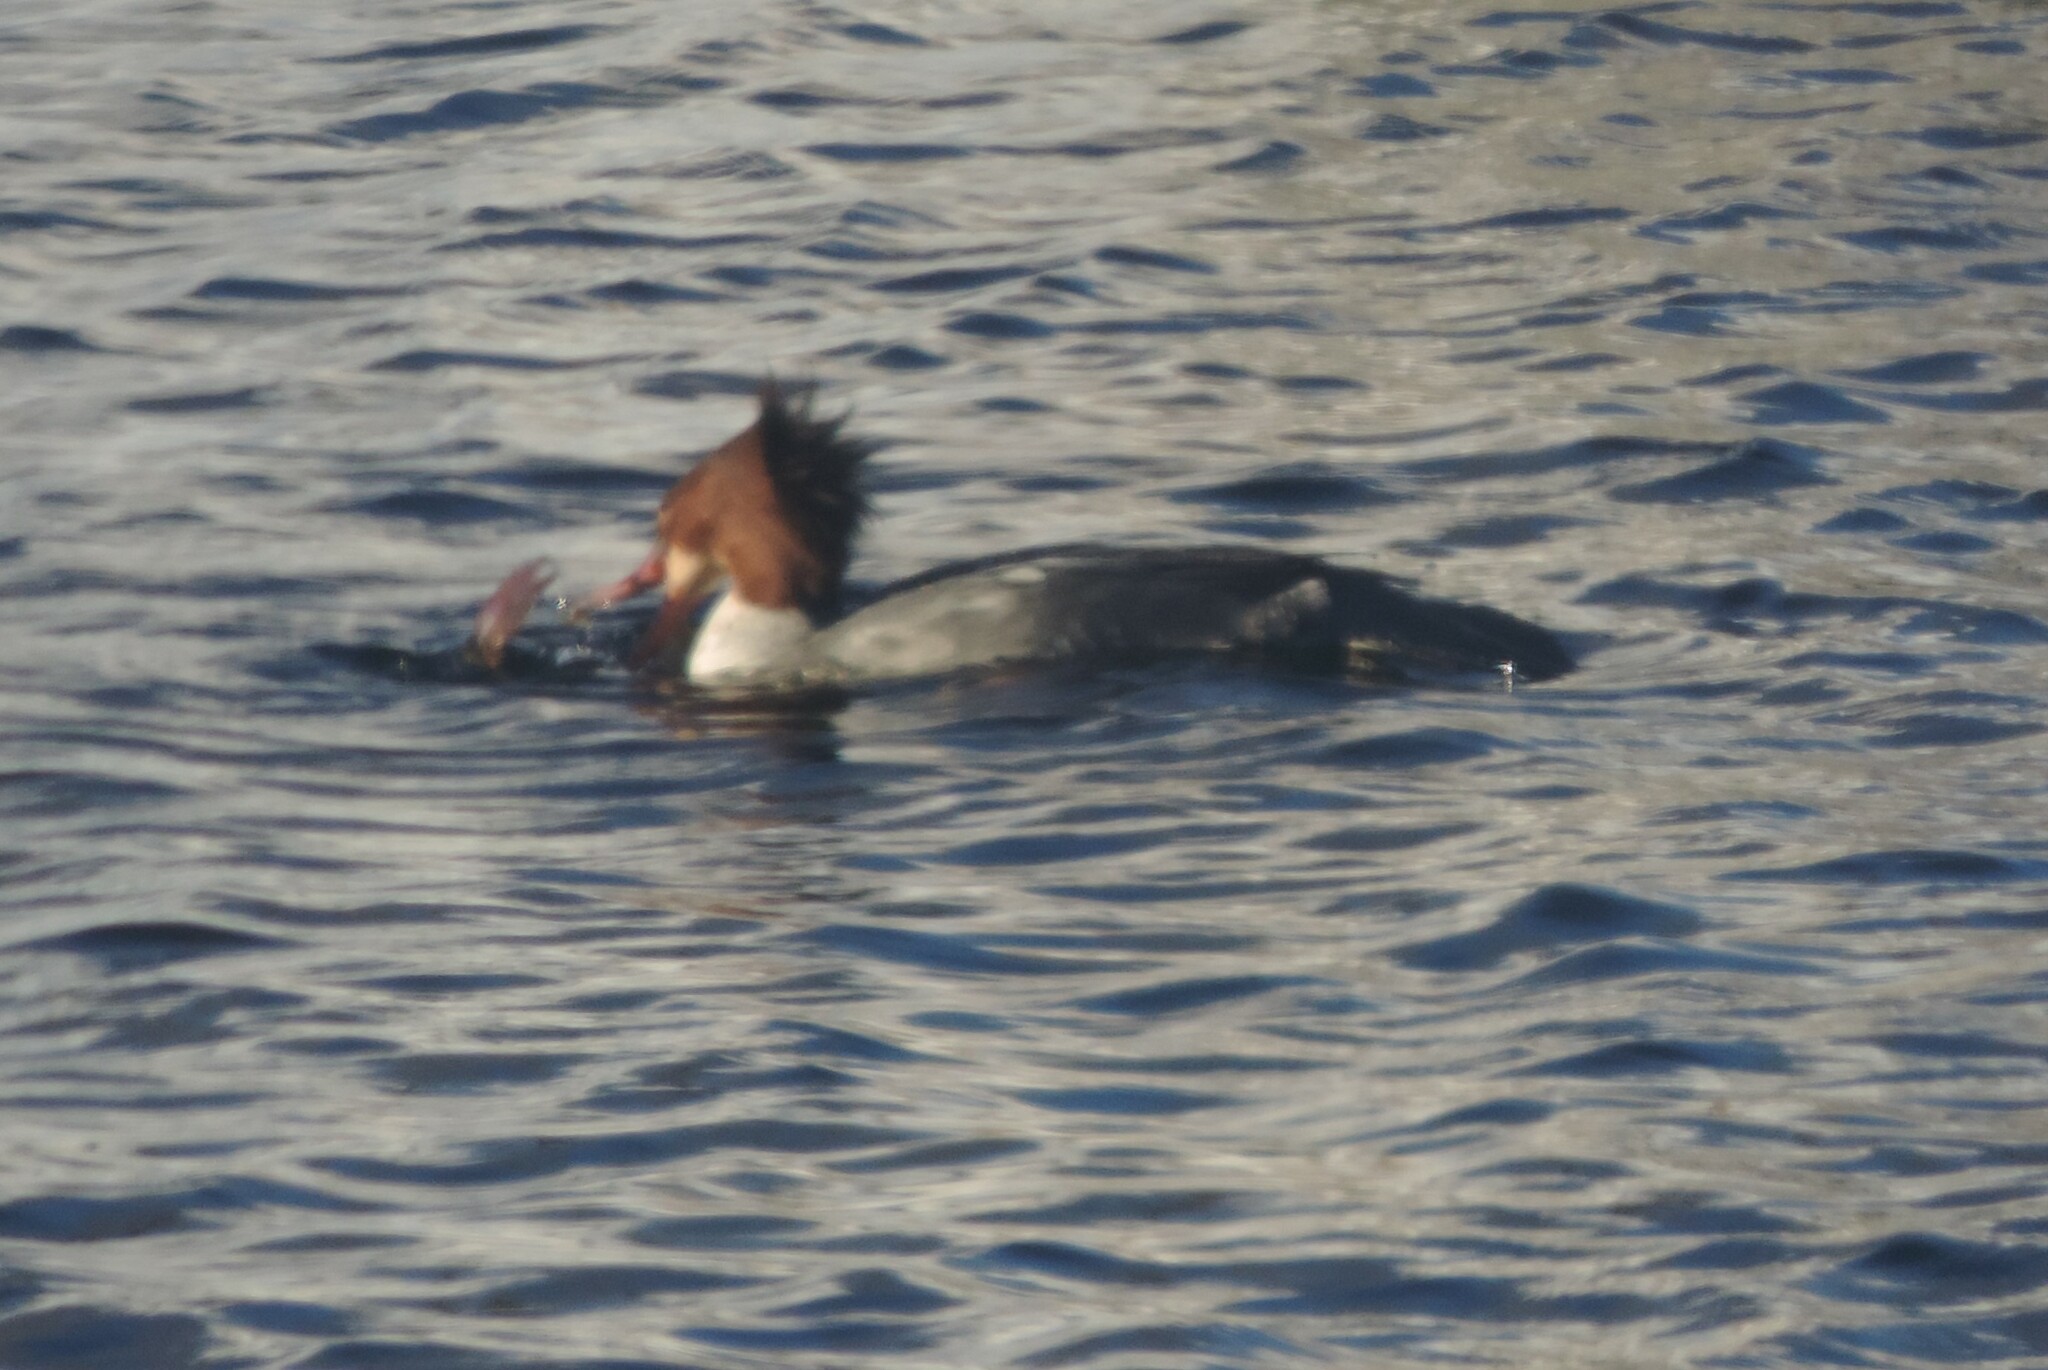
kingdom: Animalia
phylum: Chordata
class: Aves
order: Anseriformes
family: Anatidae
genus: Mergus
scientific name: Mergus merganser
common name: Common merganser
